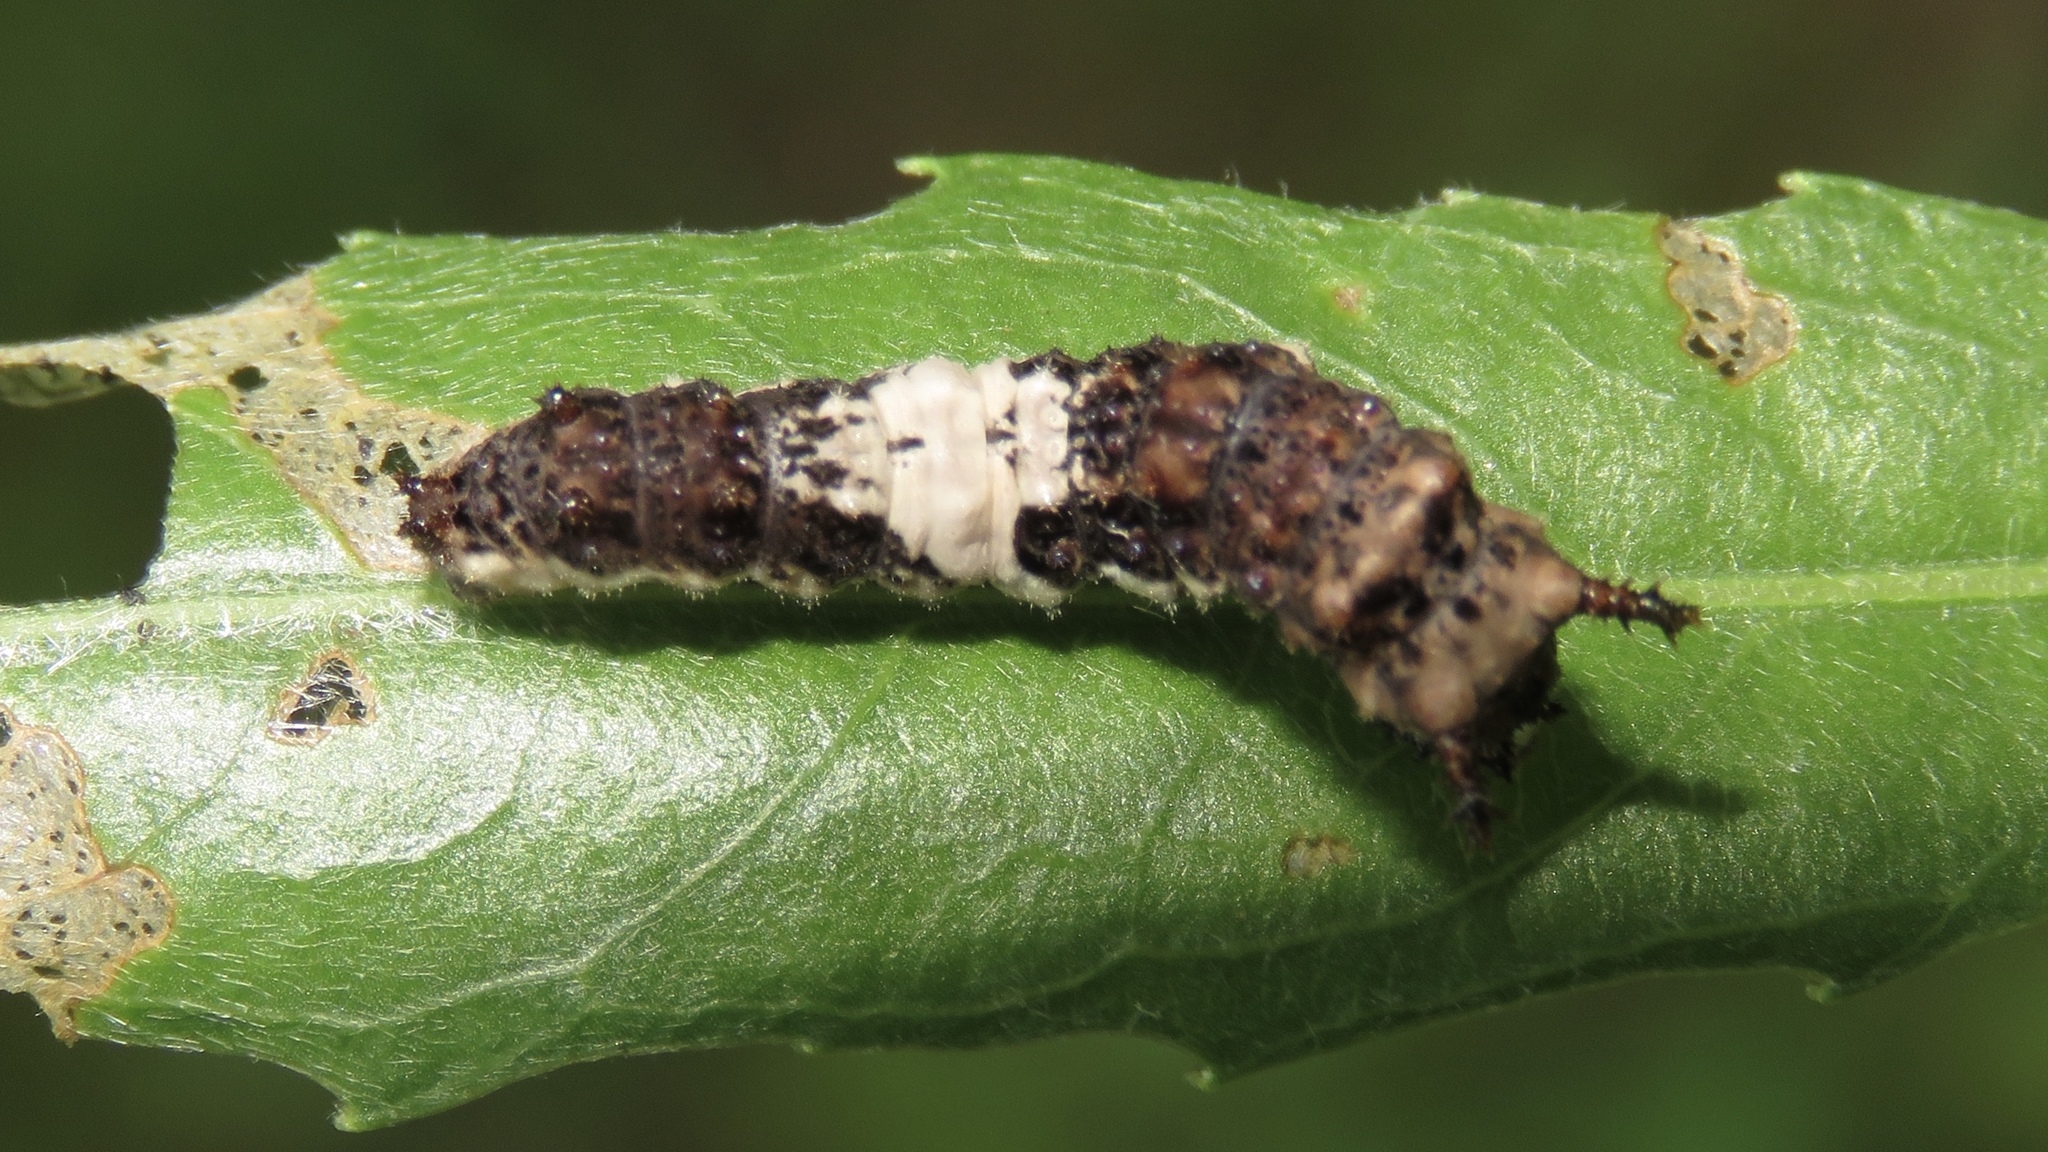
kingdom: Animalia
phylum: Arthropoda
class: Insecta
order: Lepidoptera
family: Nymphalidae
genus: Limenitis
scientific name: Limenitis
